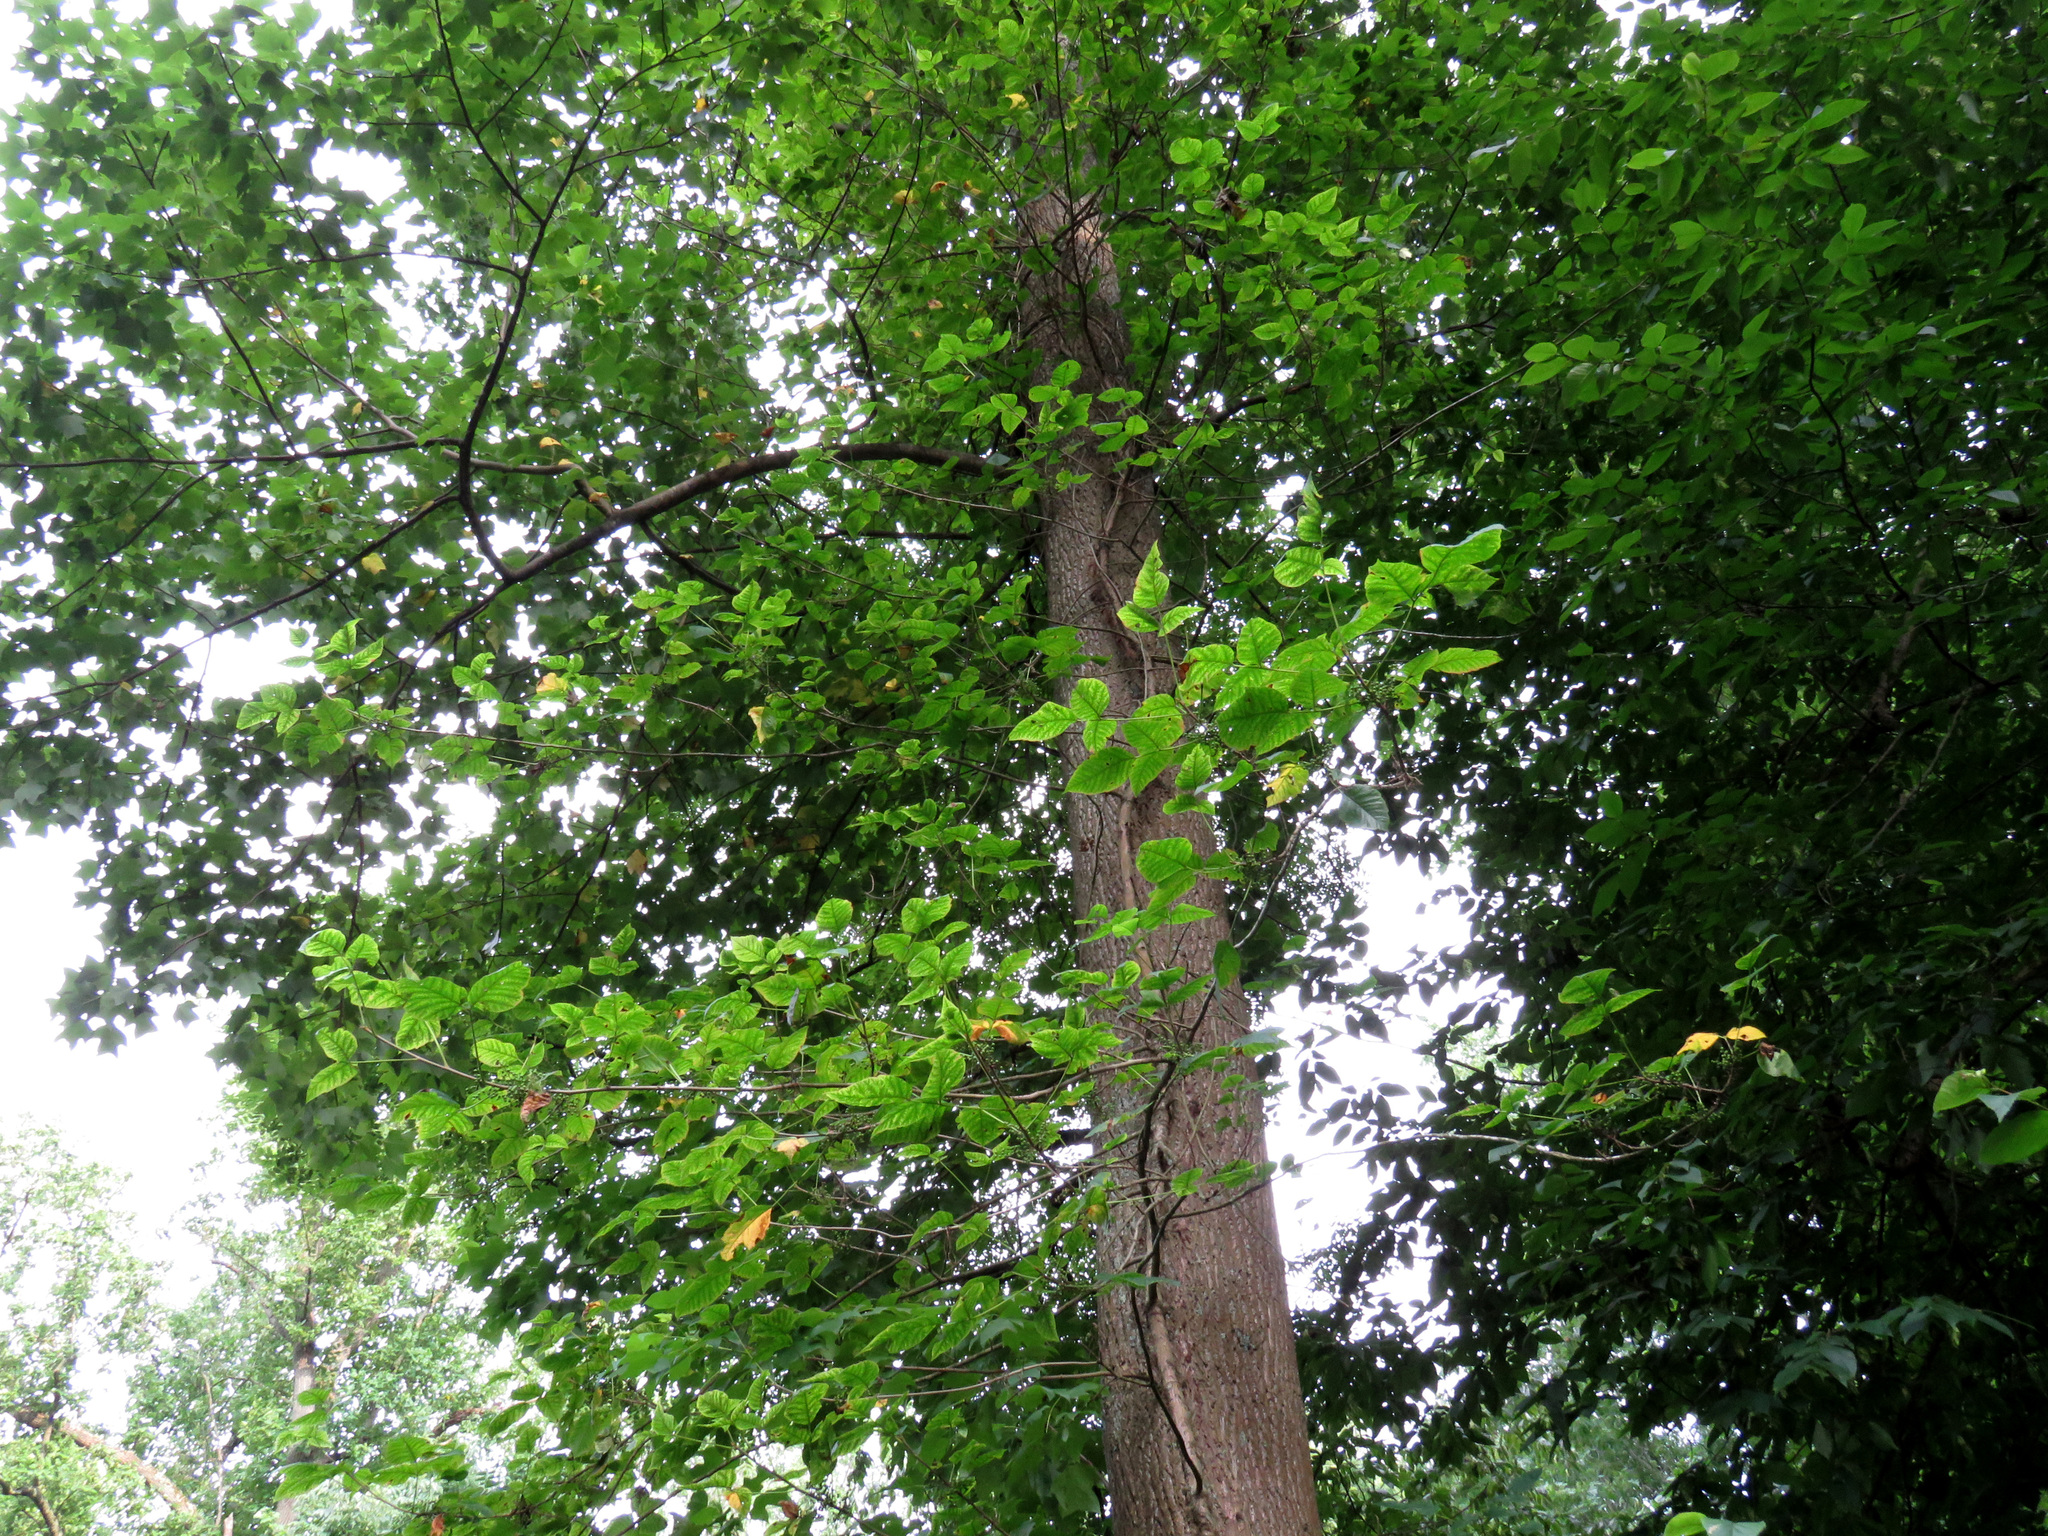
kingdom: Plantae
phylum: Tracheophyta
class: Magnoliopsida
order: Sapindales
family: Anacardiaceae
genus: Toxicodendron
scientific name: Toxicodendron radicans
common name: Poison ivy
